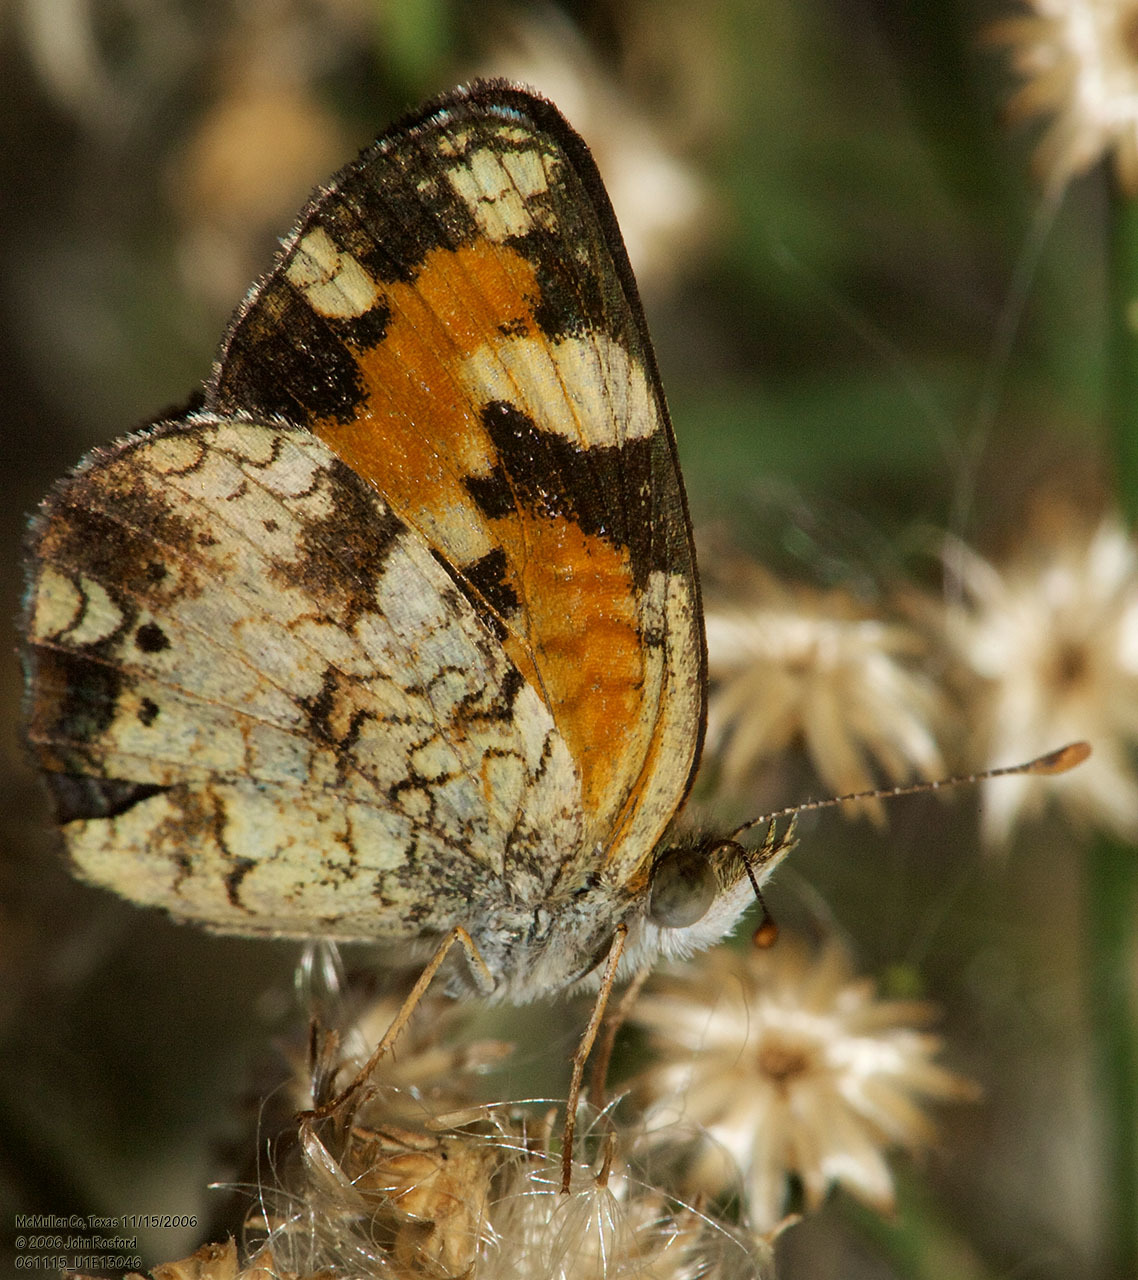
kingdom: Animalia
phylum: Arthropoda
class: Insecta
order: Lepidoptera
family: Nymphalidae
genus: Phyciodes
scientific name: Phyciodes phaon
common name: Phaon crescent
